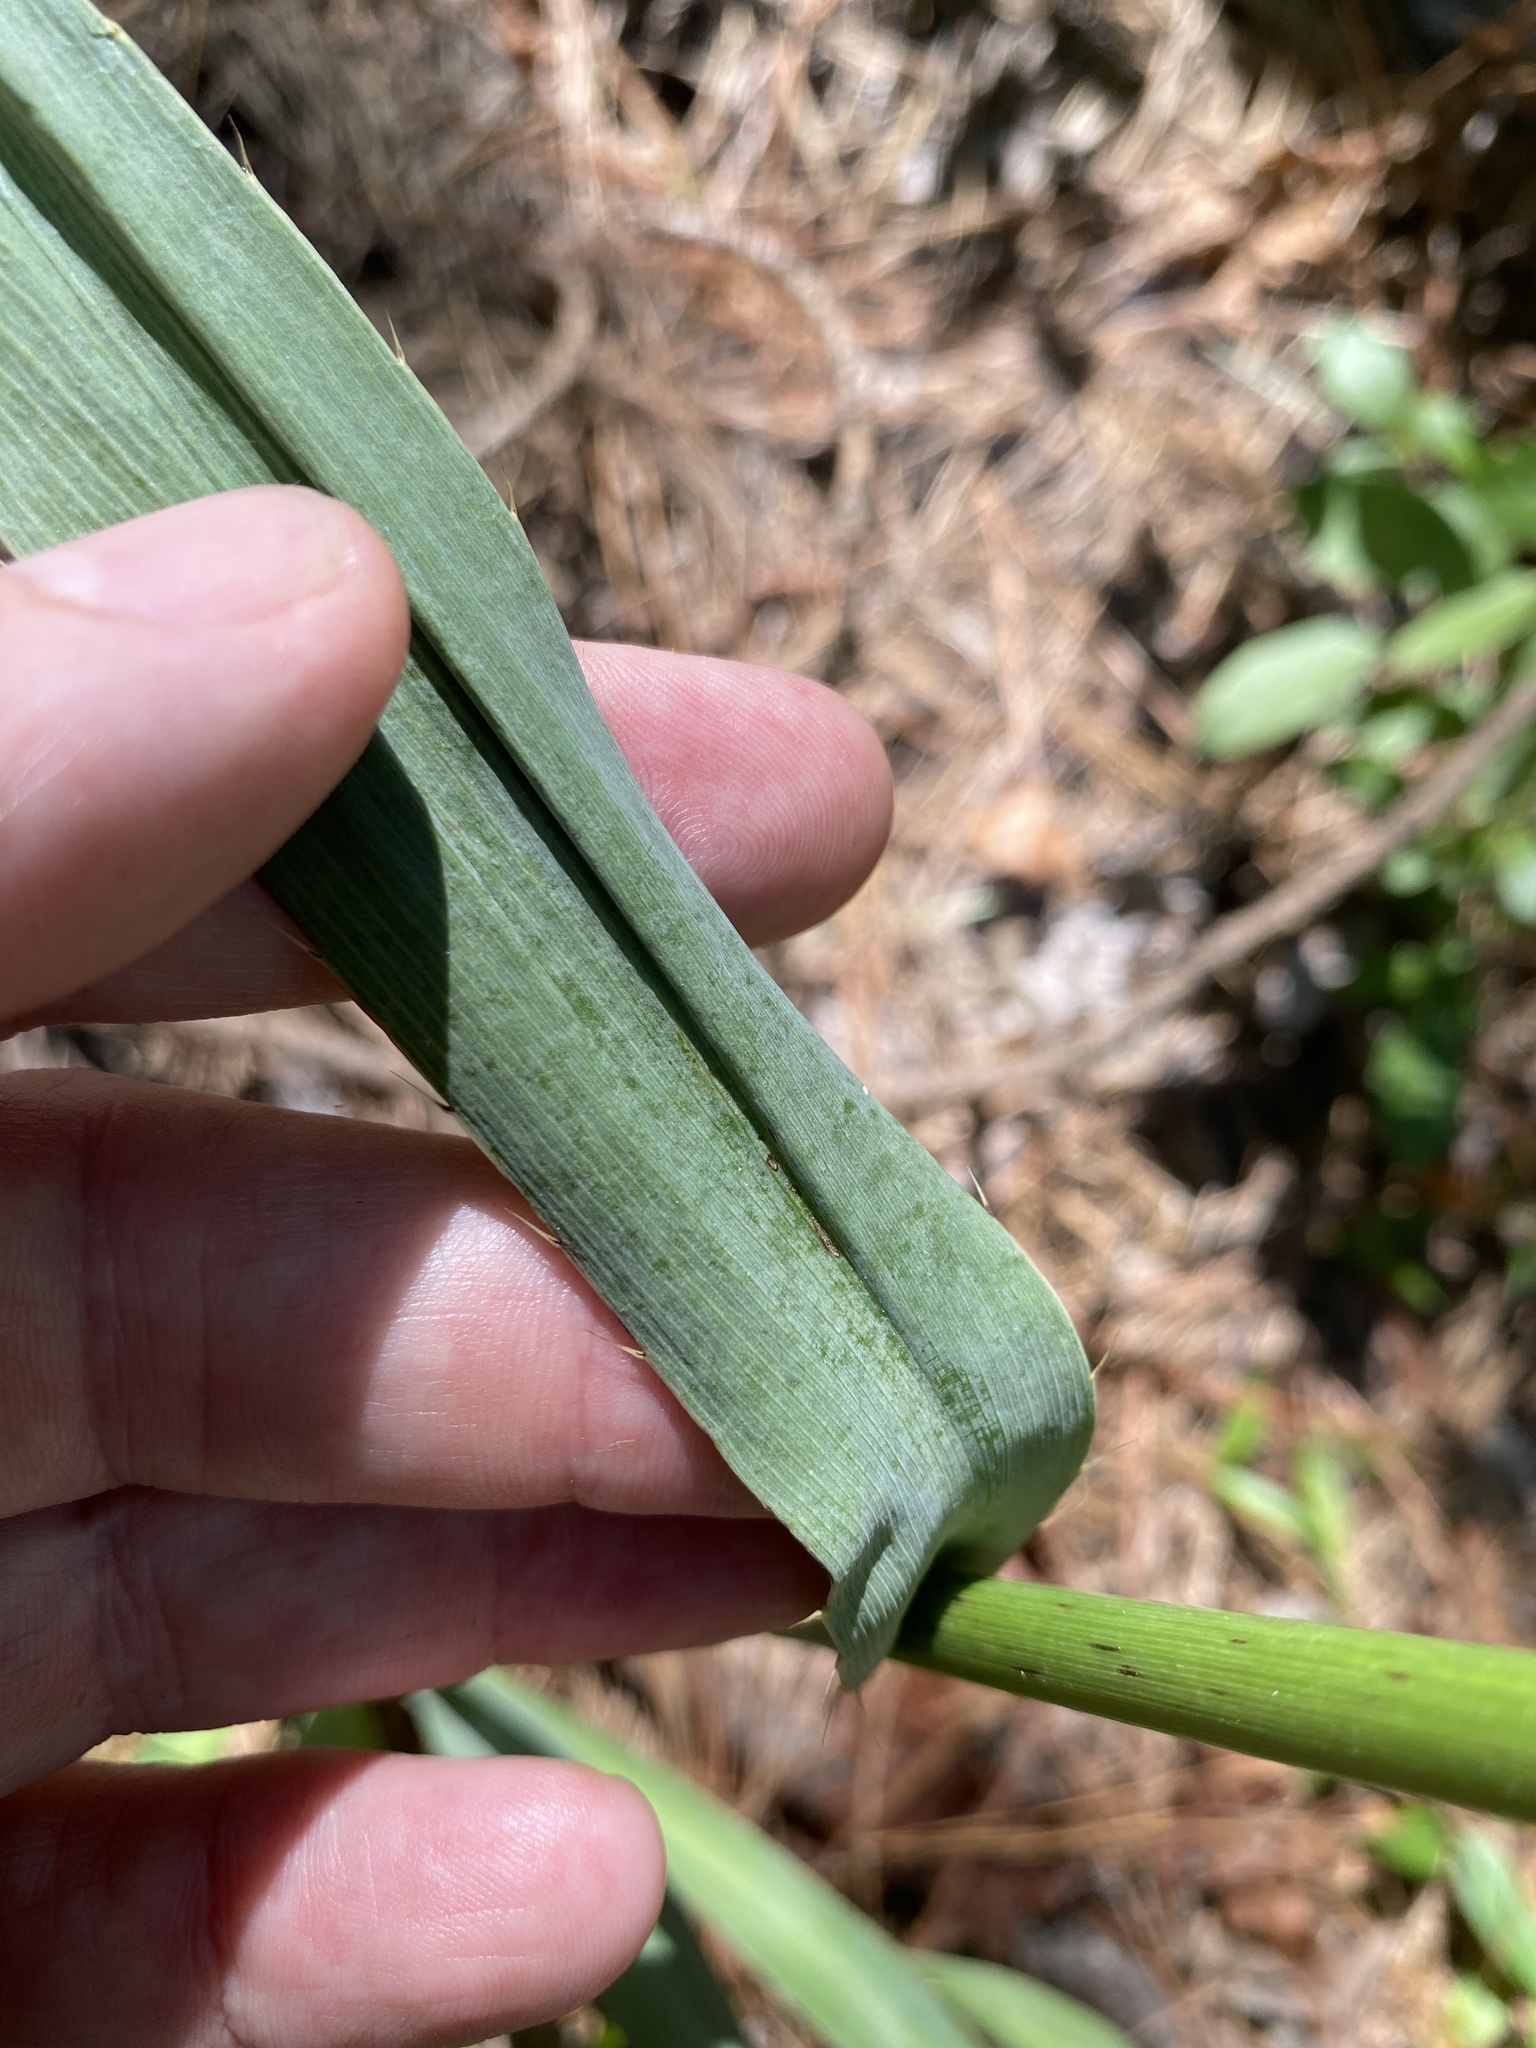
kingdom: Plantae
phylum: Tracheophyta
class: Magnoliopsida
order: Apiales
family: Apiaceae
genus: Eryngium
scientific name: Eryngium yuccifolium
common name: Button eryngo
